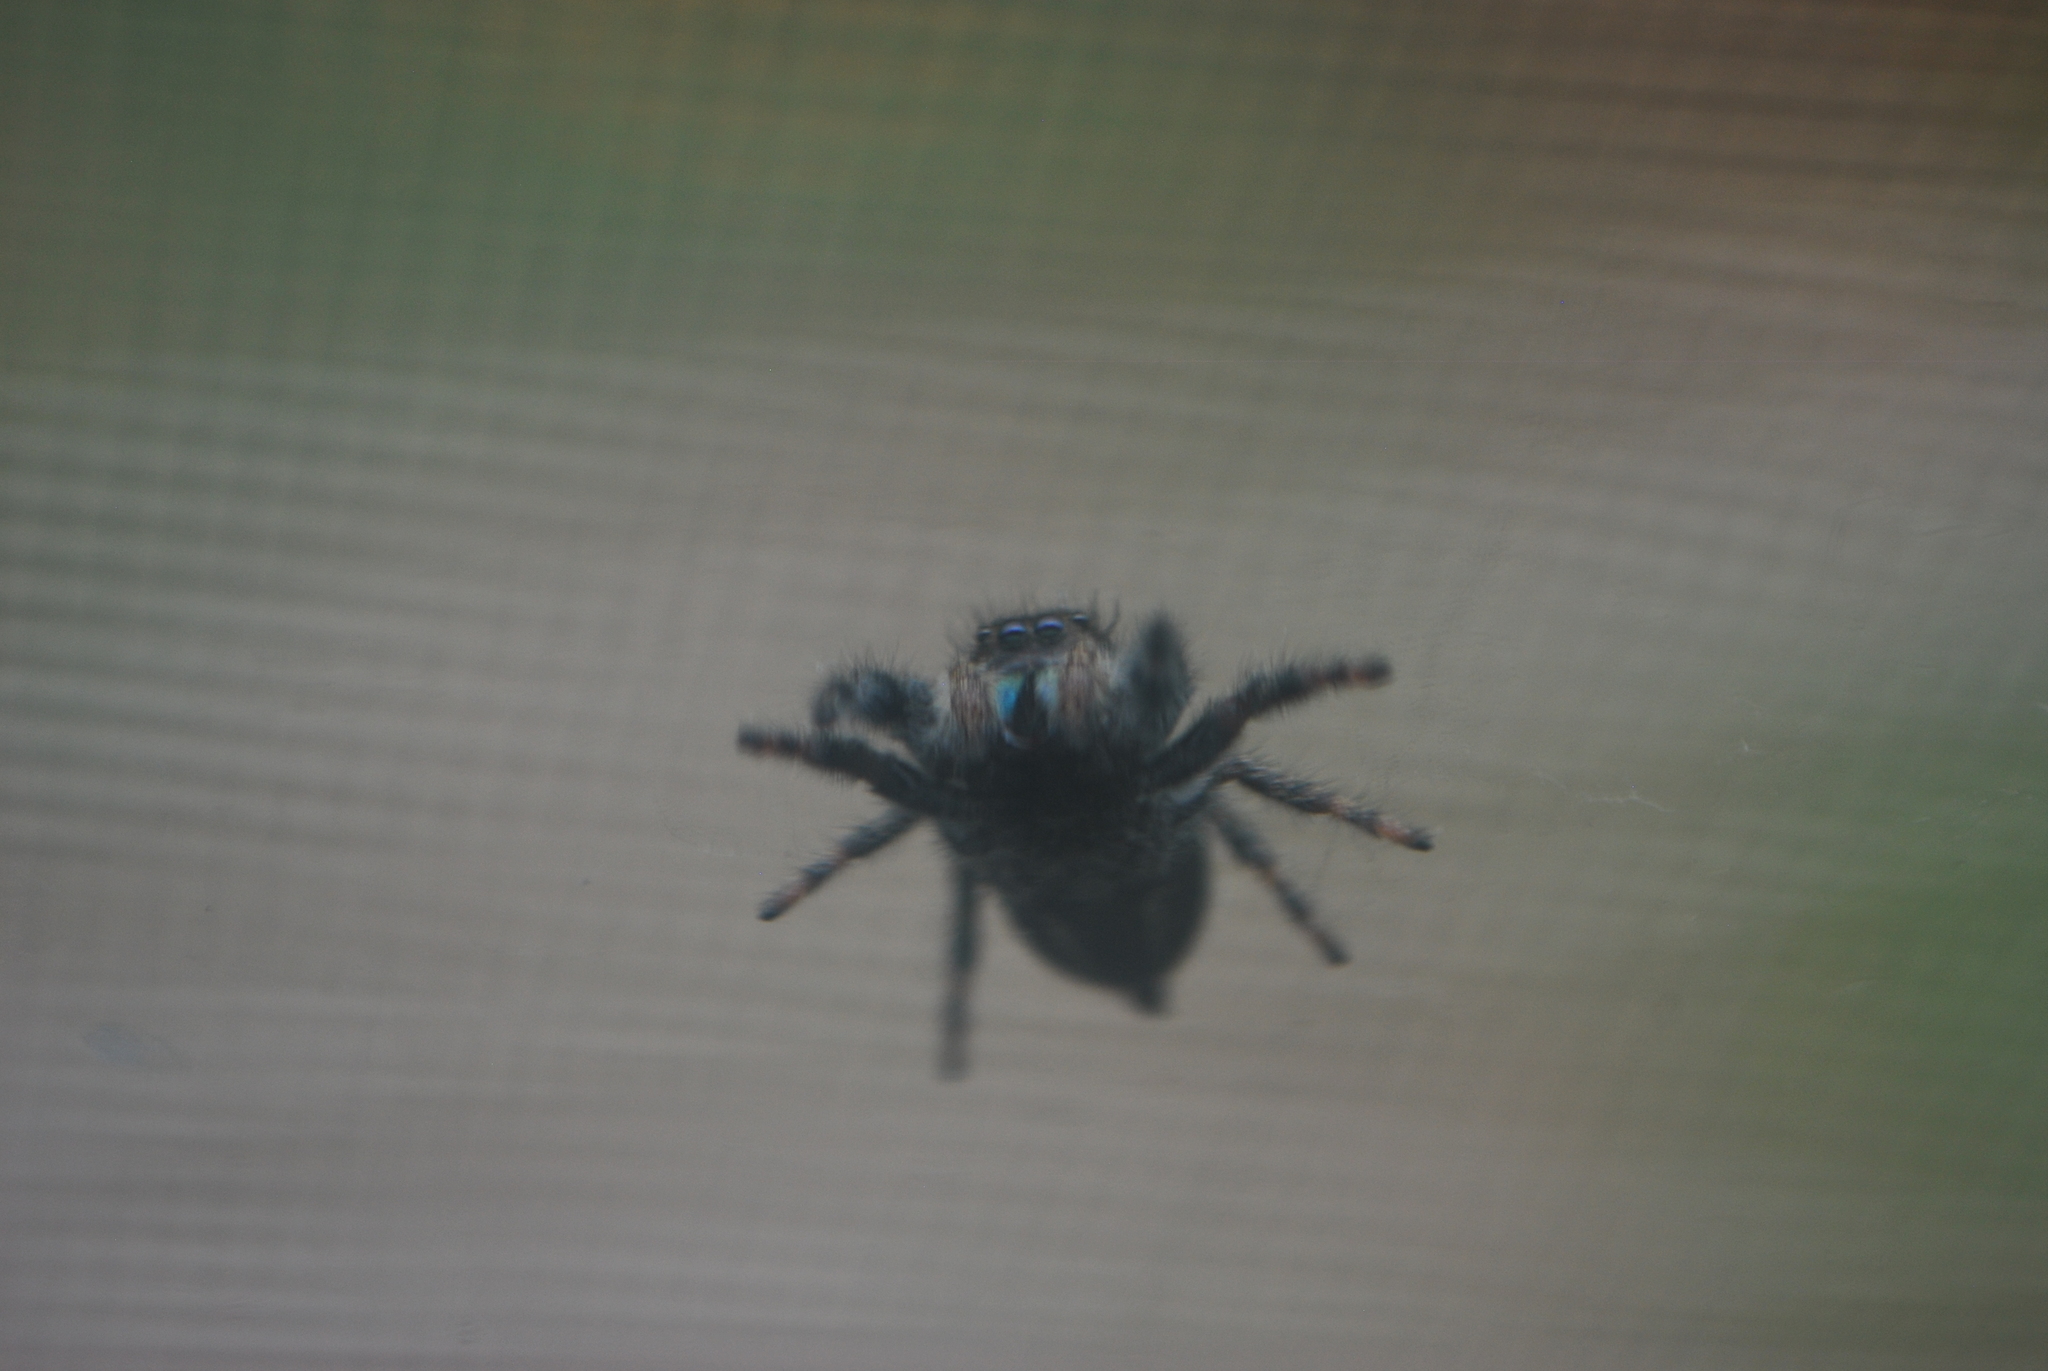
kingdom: Animalia
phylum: Arthropoda
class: Arachnida
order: Araneae
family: Salticidae
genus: Phidippus
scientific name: Phidippus audax
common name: Bold jumper
